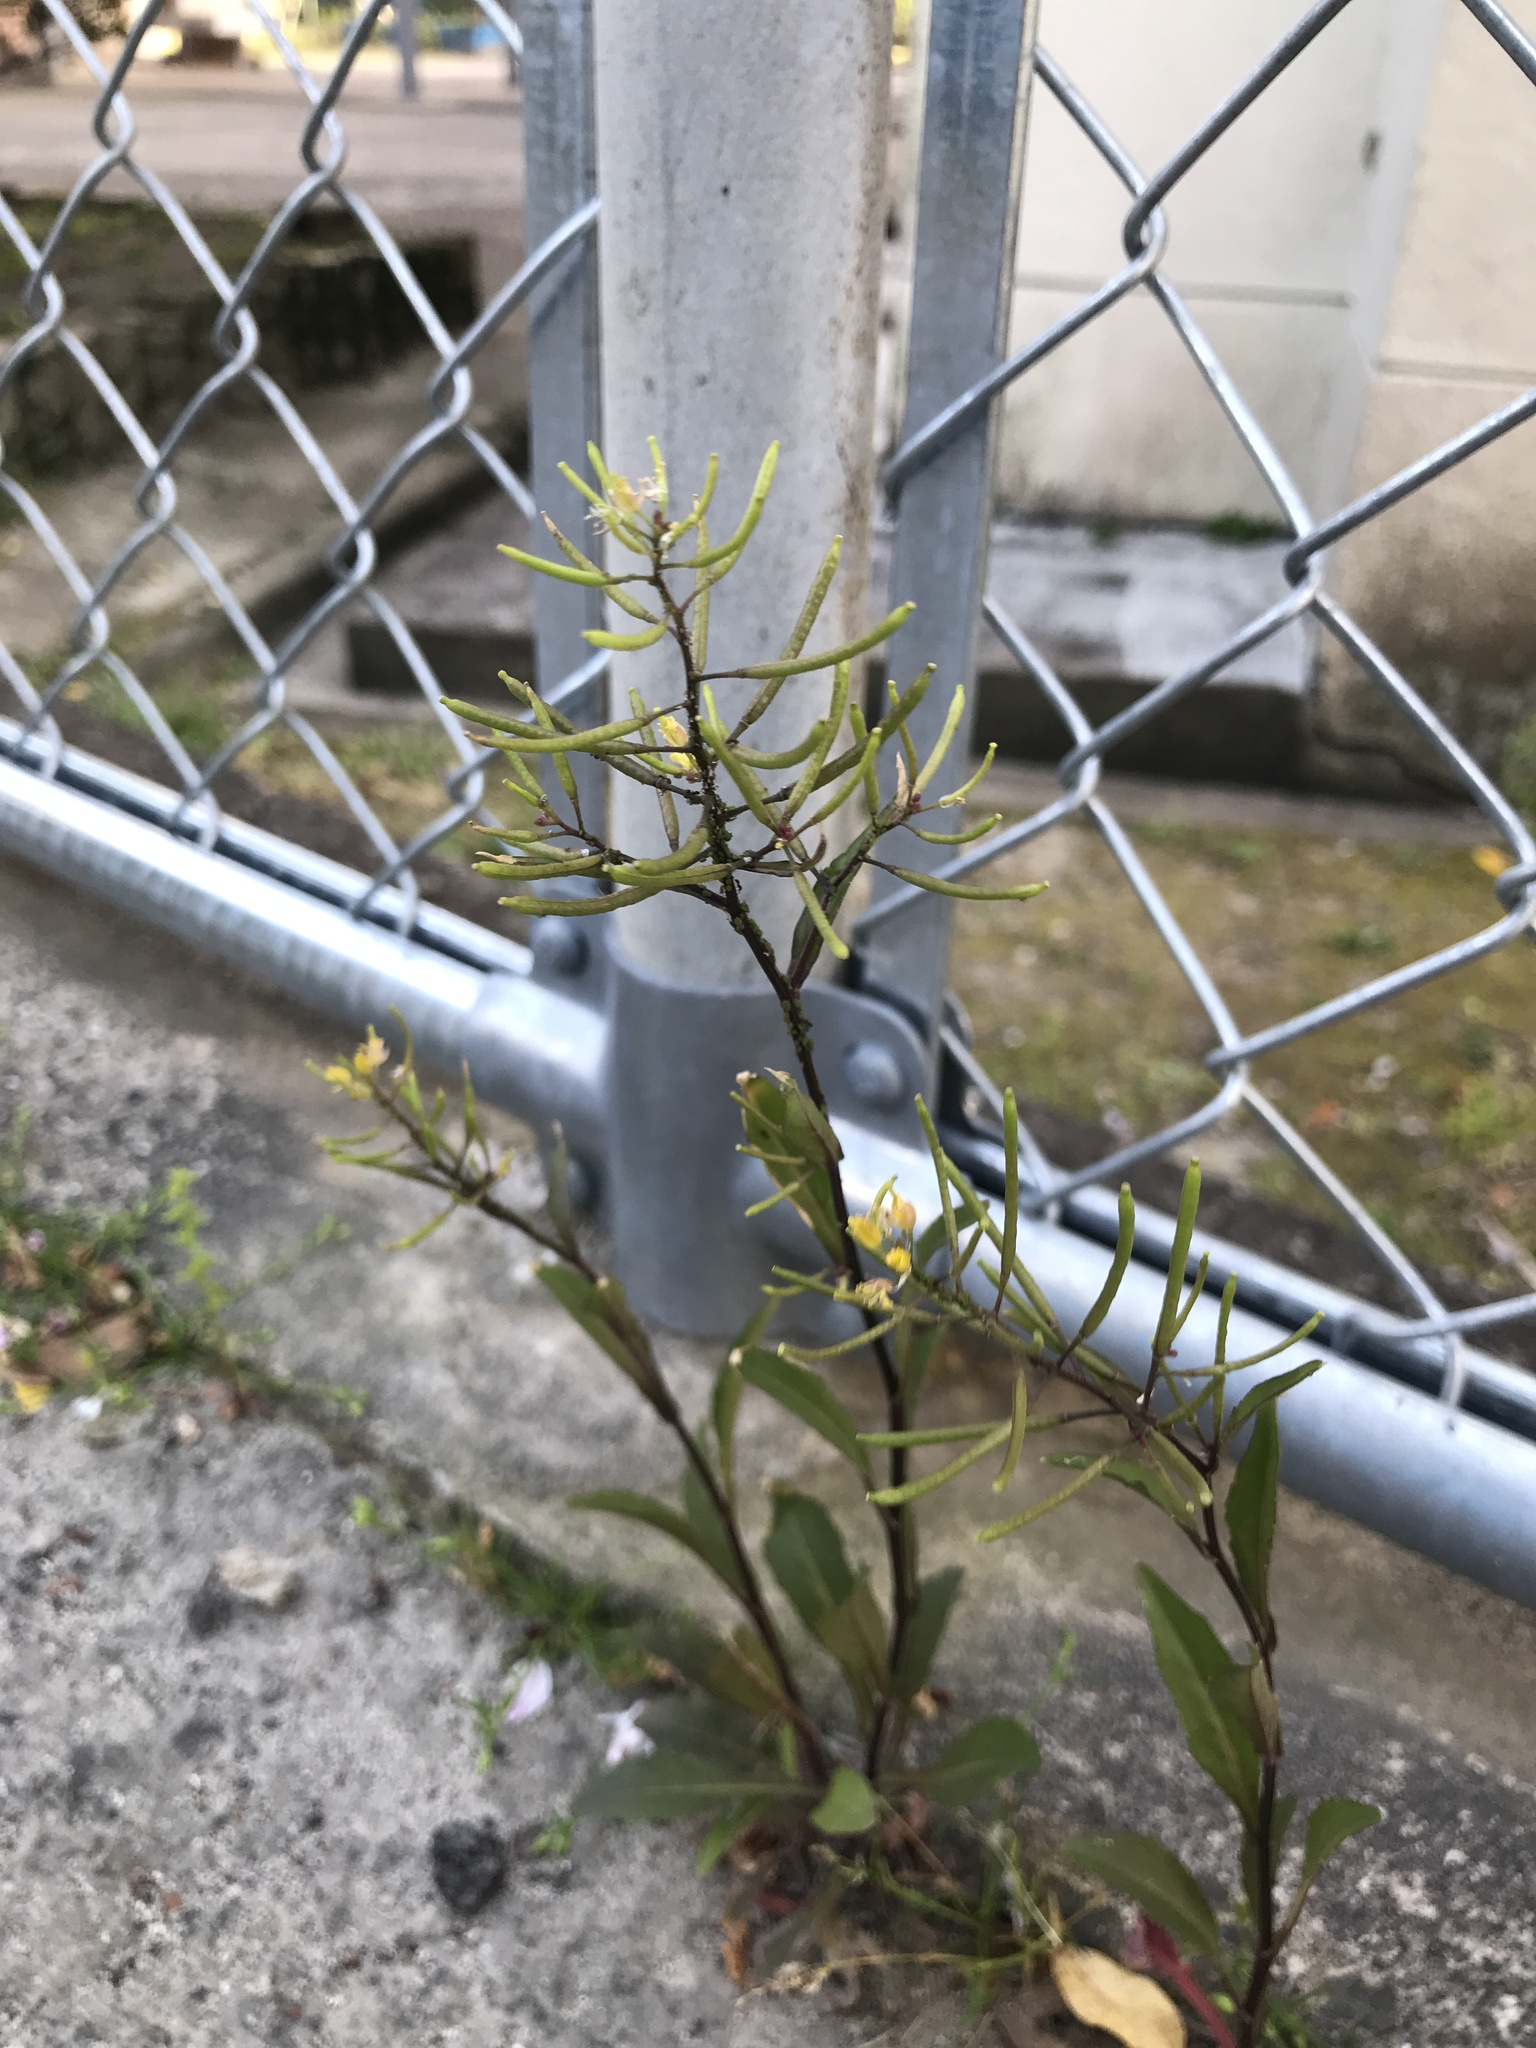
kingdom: Plantae
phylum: Tracheophyta
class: Magnoliopsida
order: Brassicales
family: Brassicaceae
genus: Rorippa
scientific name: Rorippa indica
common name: Variableleaf yellowcress
